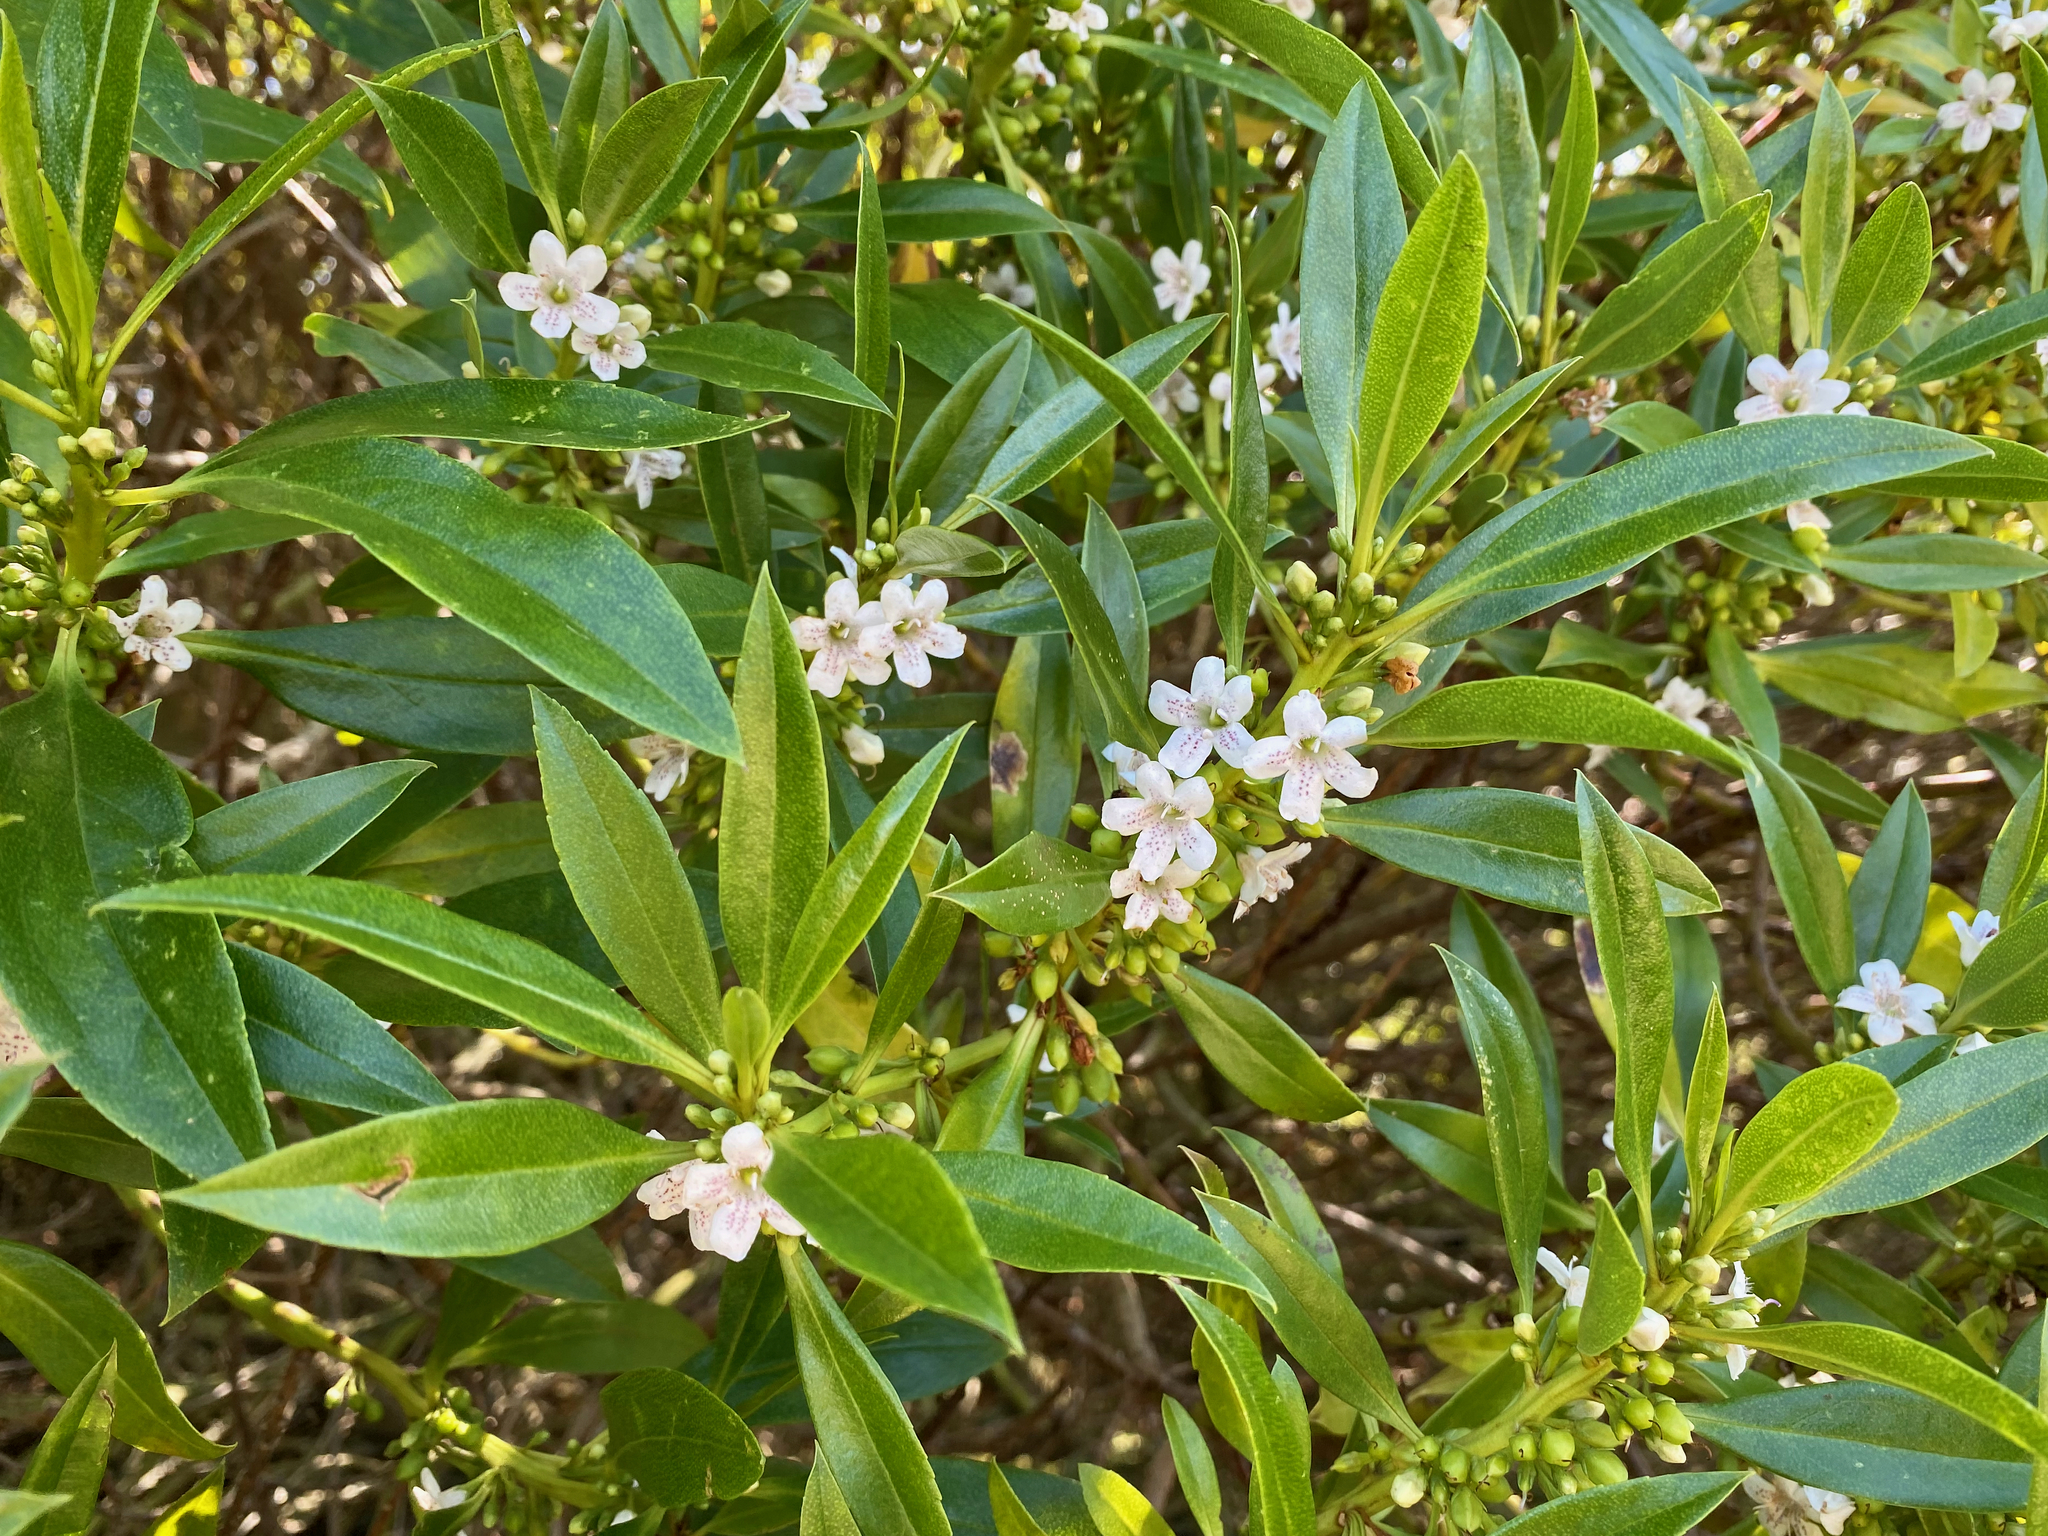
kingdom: Plantae
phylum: Tracheophyta
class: Magnoliopsida
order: Lamiales
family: Scrophulariaceae
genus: Myoporum
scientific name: Myoporum laetum
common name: Ngaio tree
